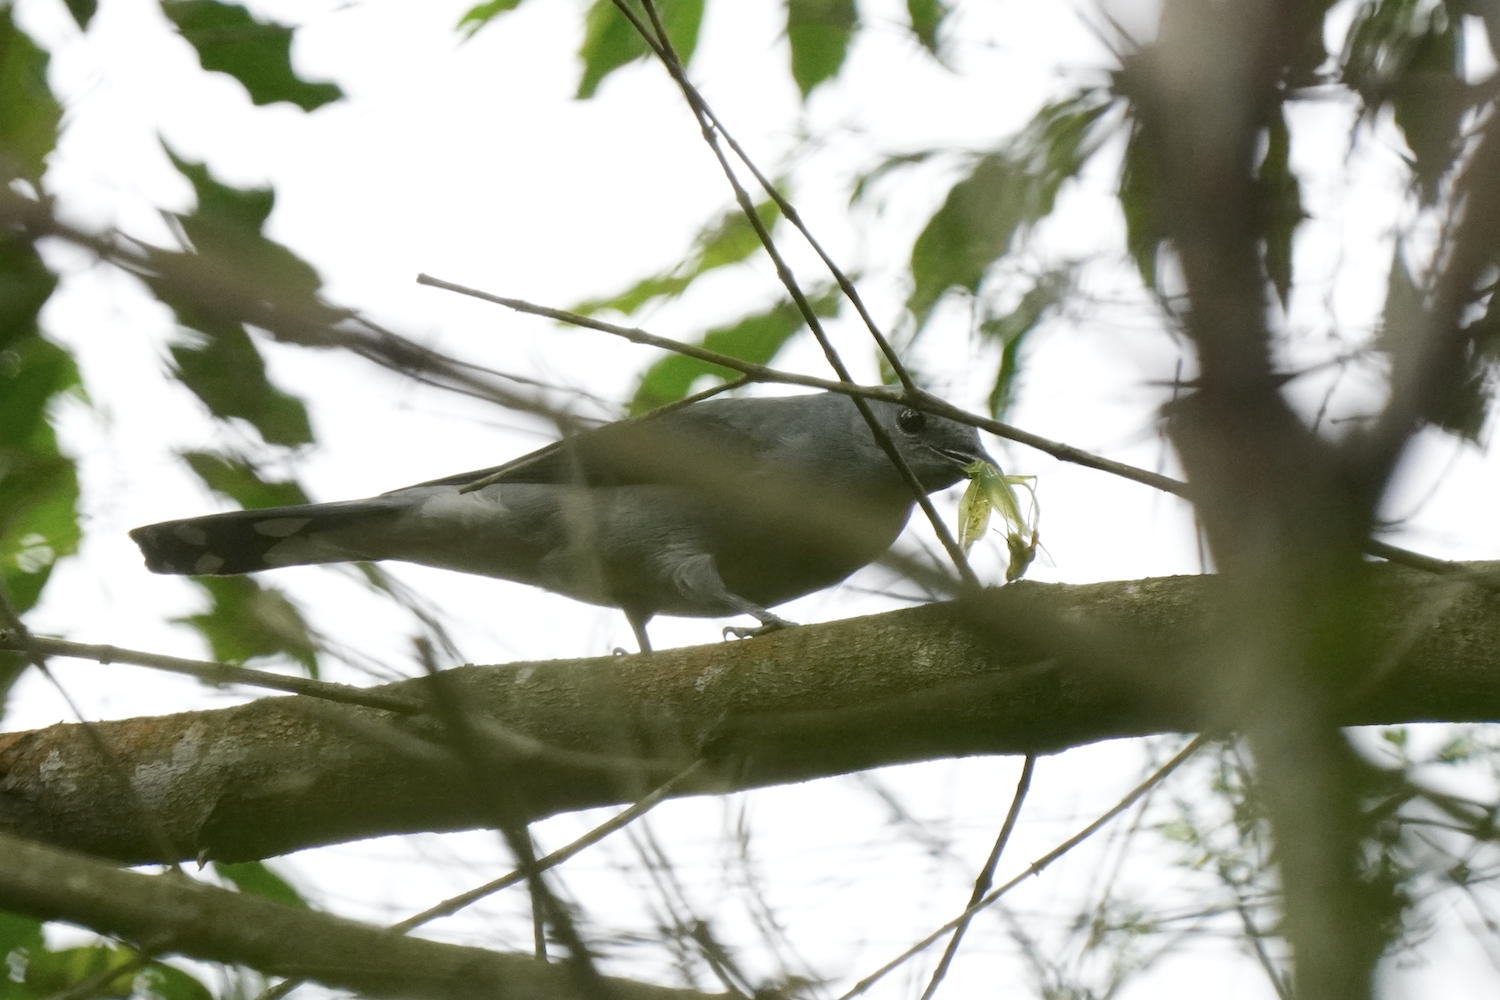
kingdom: Animalia
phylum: Chordata
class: Aves
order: Passeriformes
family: Campephagidae
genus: Coracina
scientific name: Coracina melaschistos
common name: Black-winged cuckooshrike
